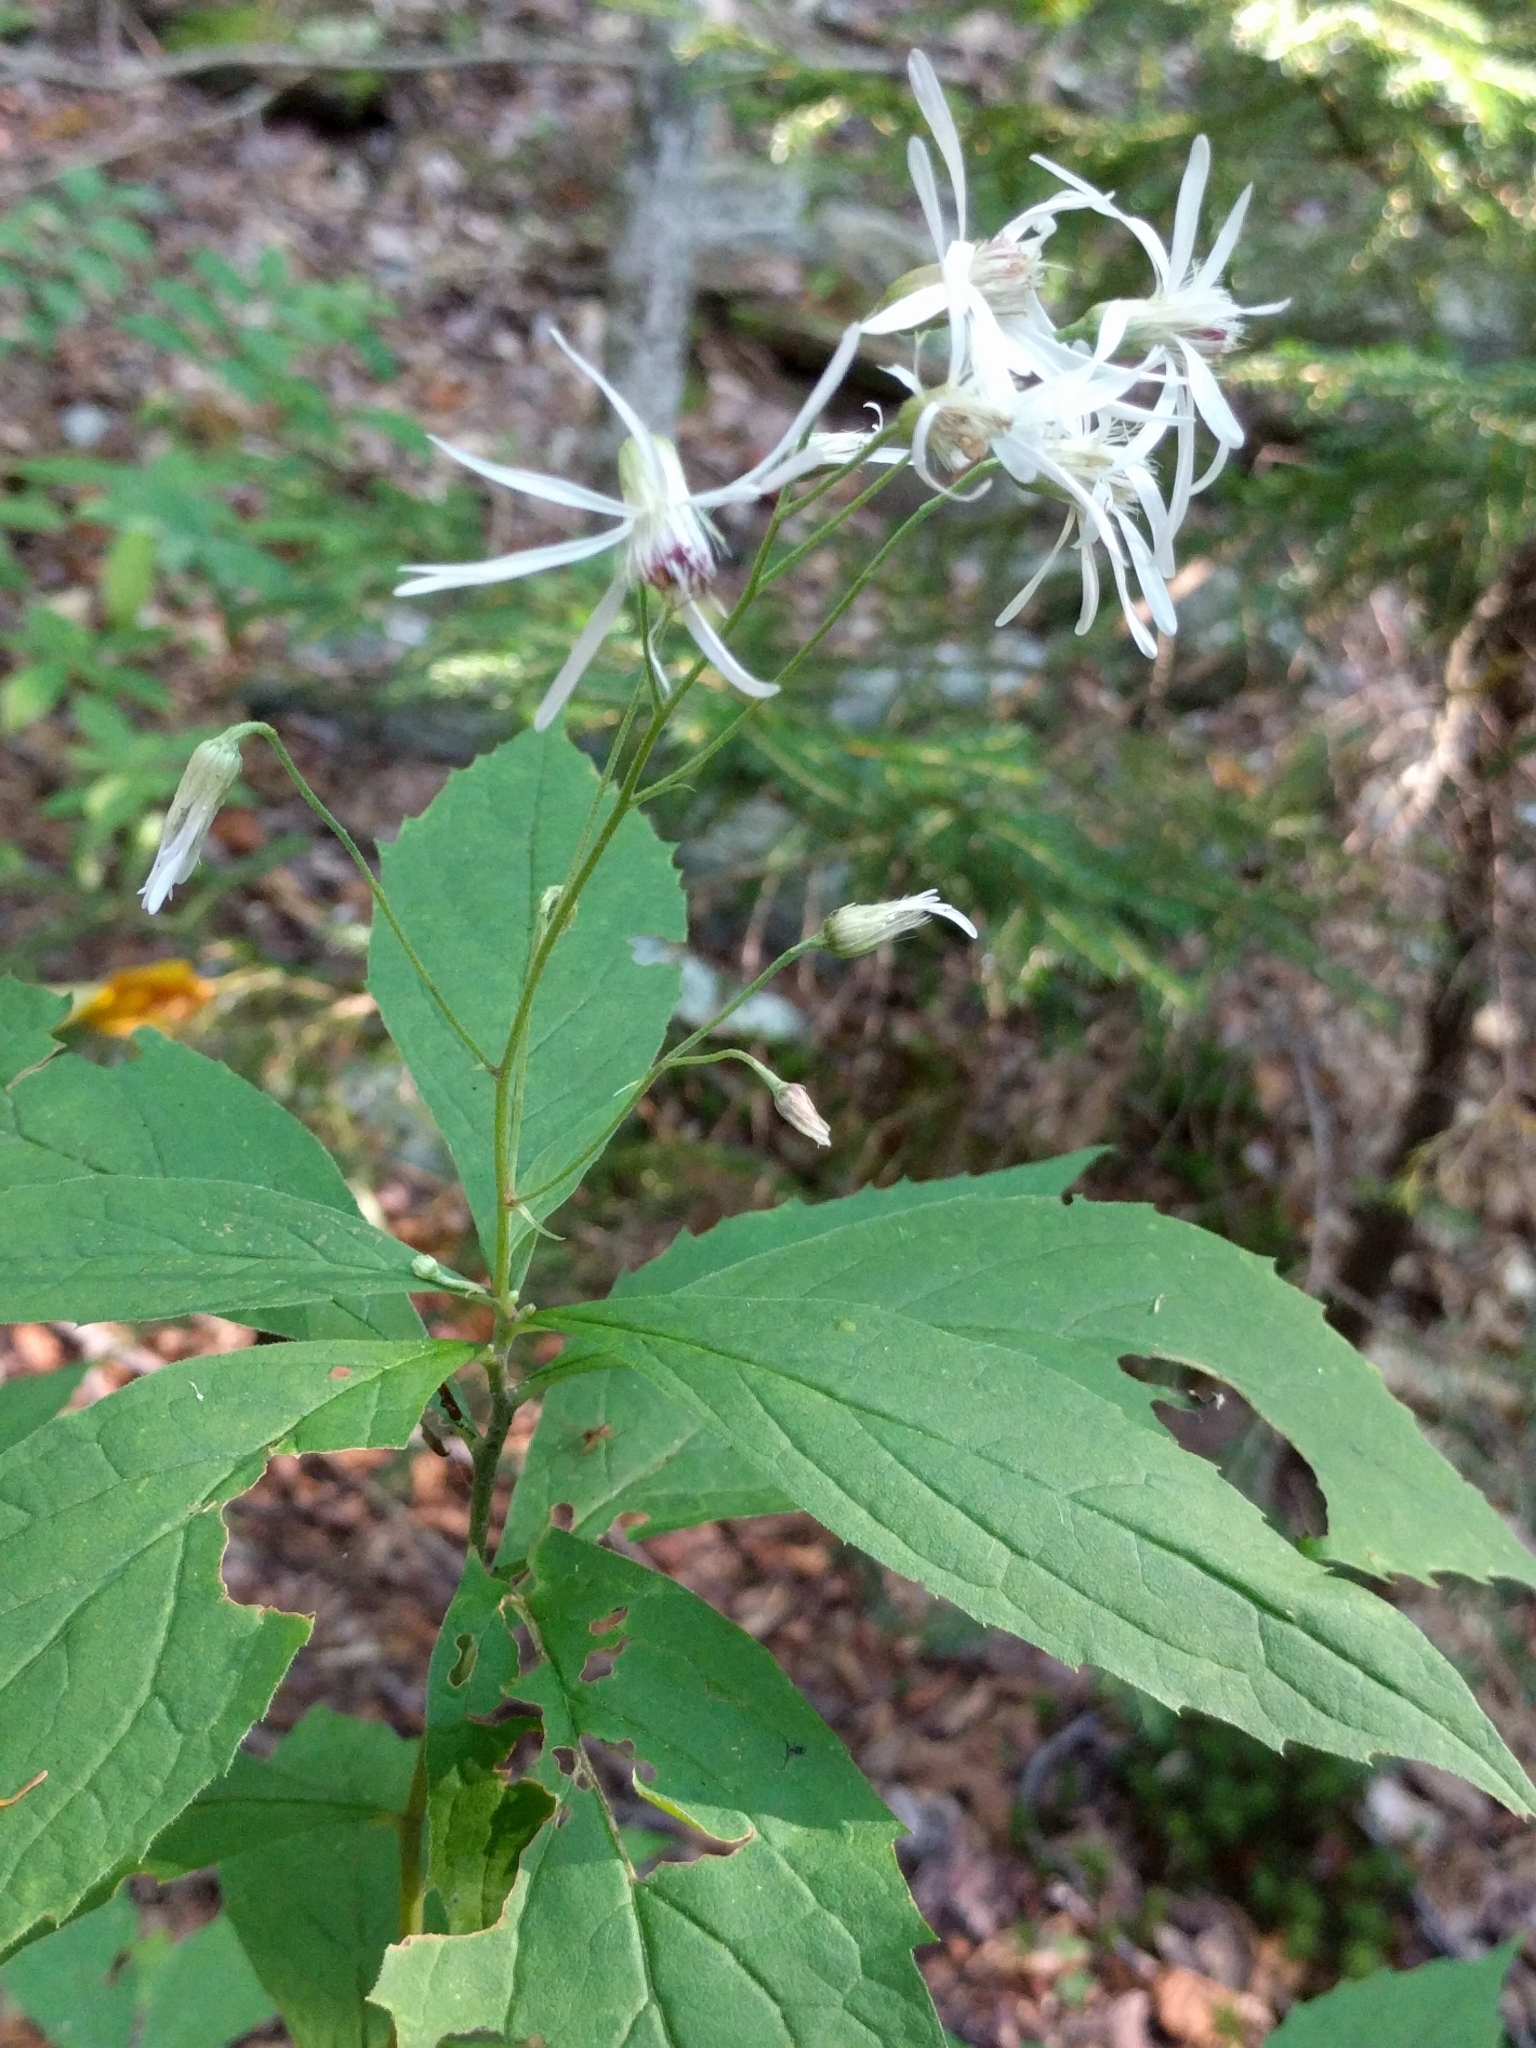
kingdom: Plantae
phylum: Tracheophyta
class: Magnoliopsida
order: Asterales
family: Asteraceae
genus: Oclemena
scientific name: Oclemena acuminata
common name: Mountain aster
